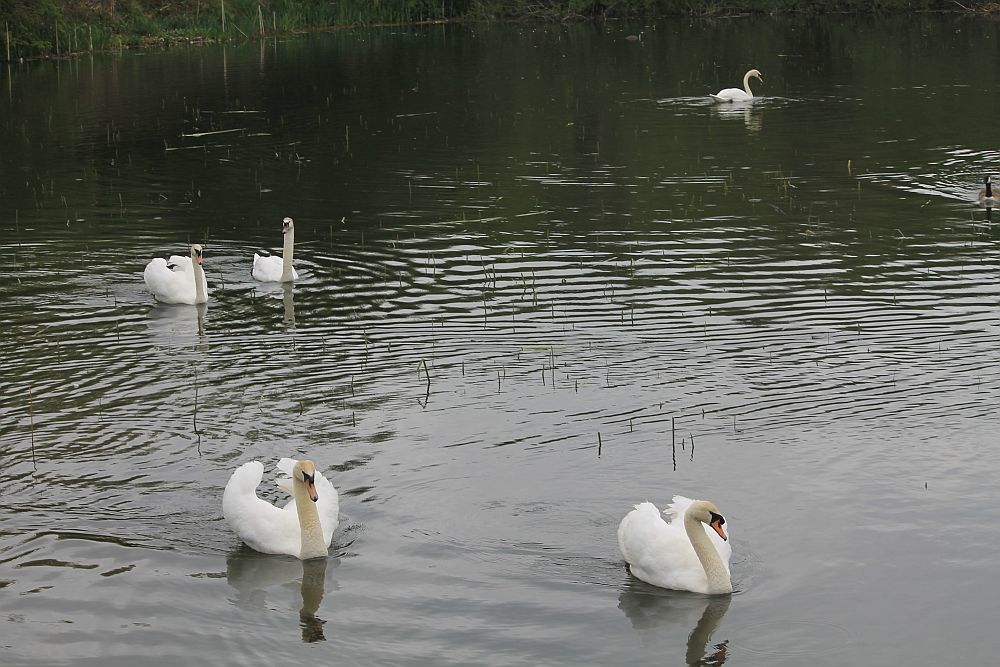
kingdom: Animalia
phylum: Chordata
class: Aves
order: Anseriformes
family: Anatidae
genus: Cygnus
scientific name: Cygnus olor
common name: Mute swan
